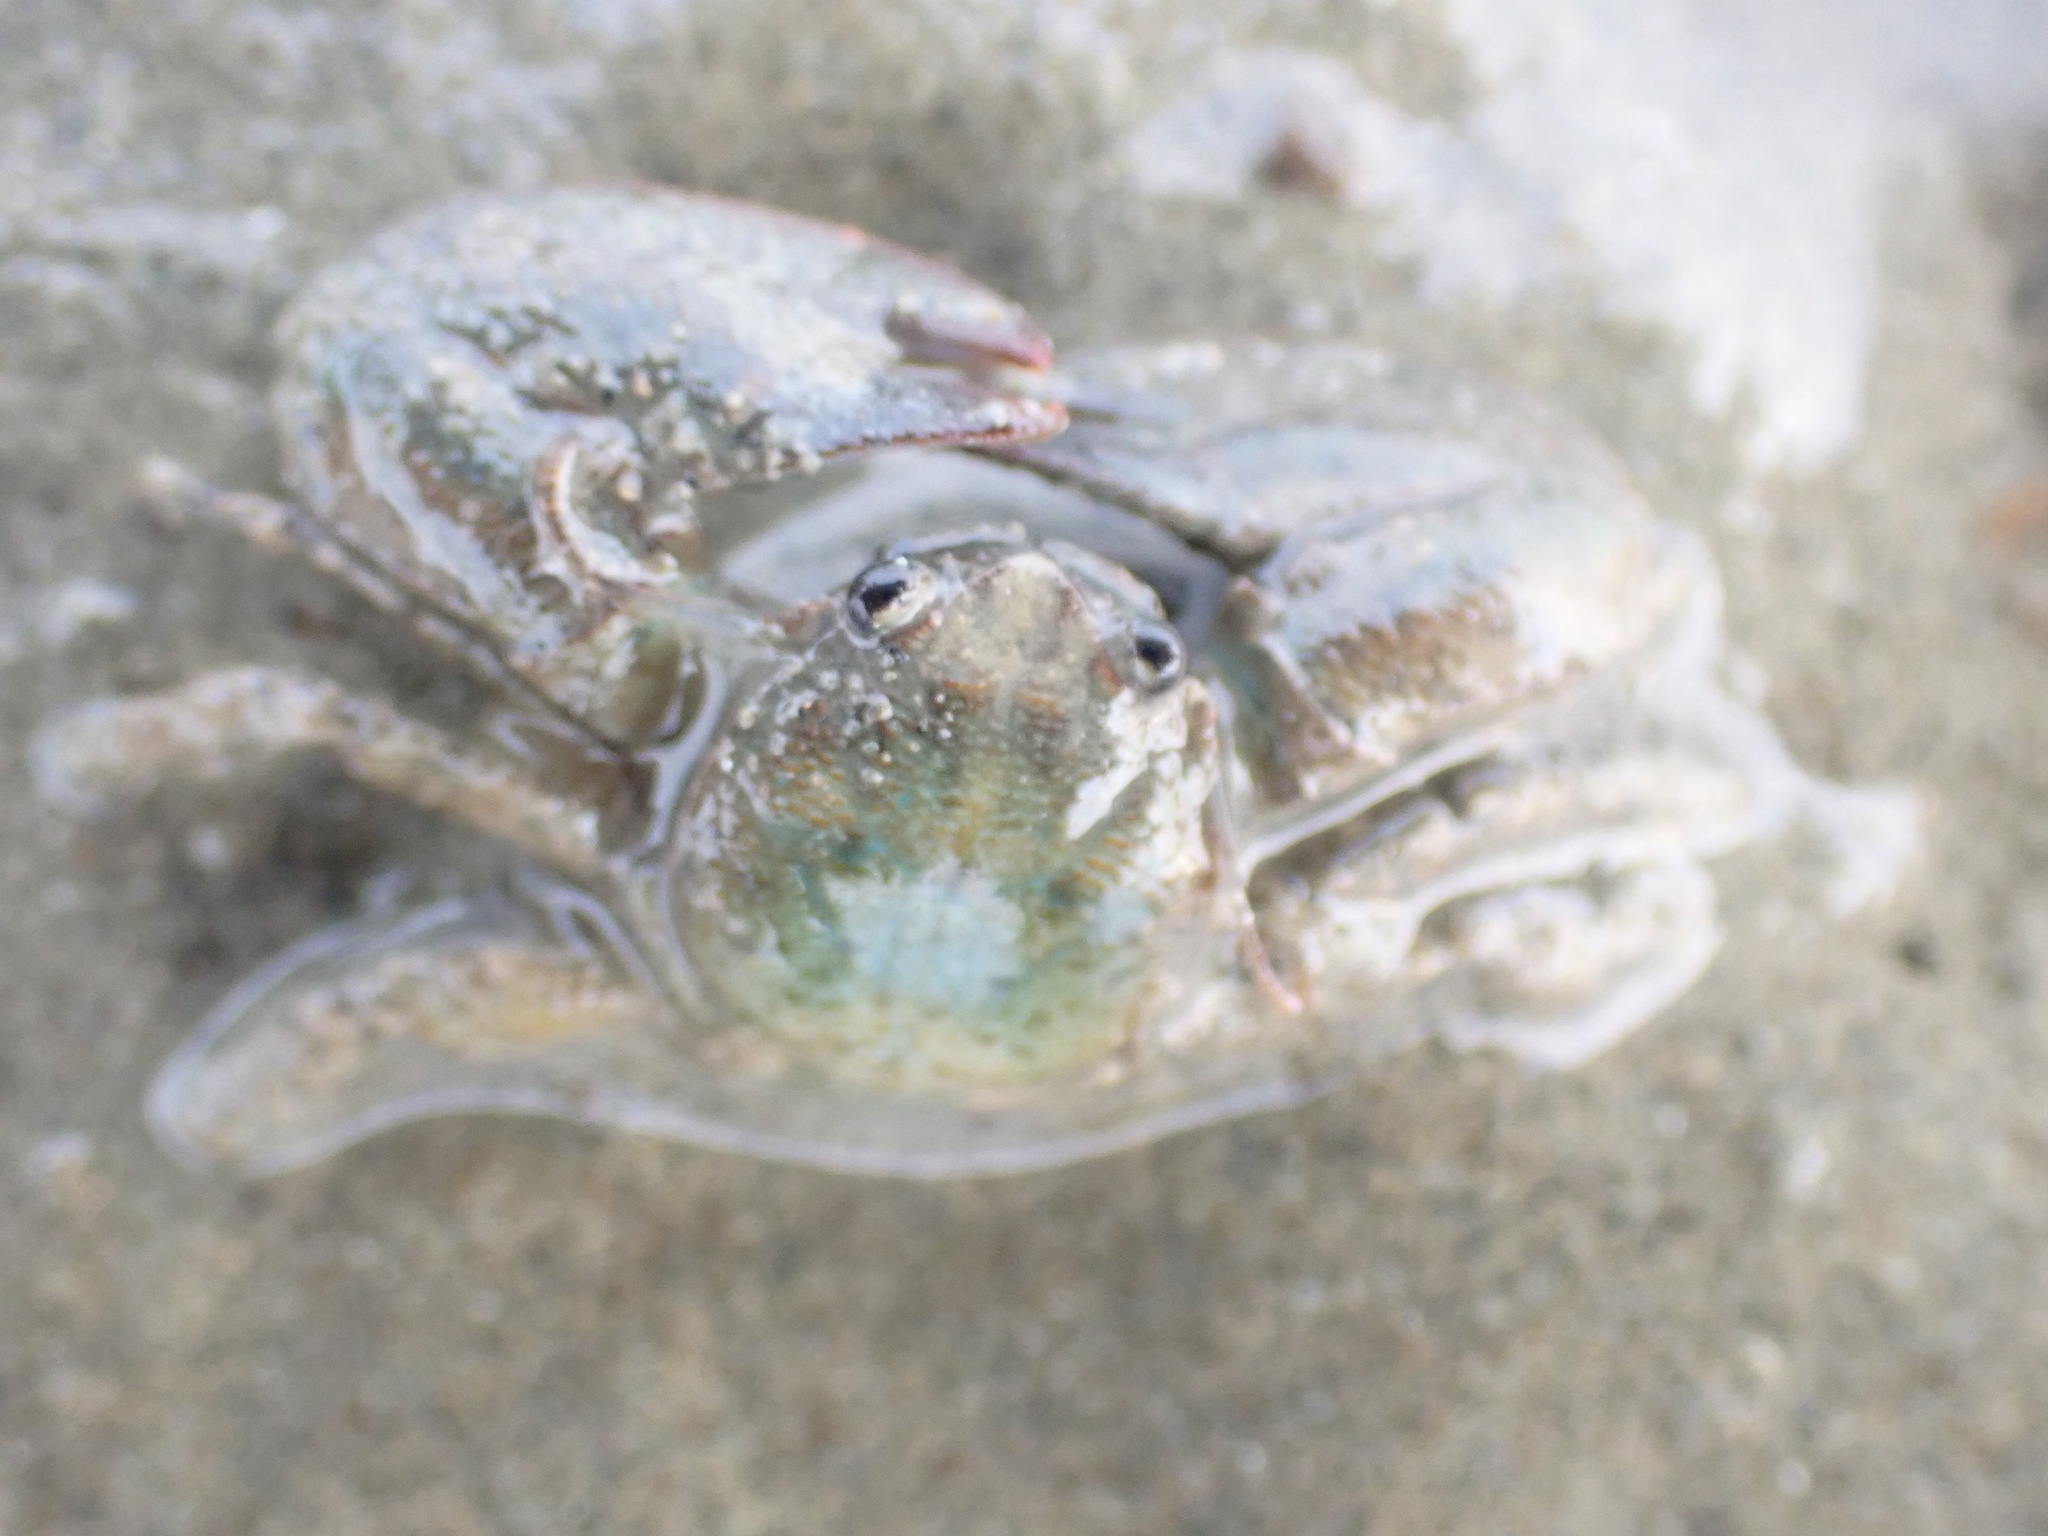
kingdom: Animalia
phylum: Arthropoda
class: Malacostraca
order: Decapoda
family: Porcellanidae
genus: Petrolisthes
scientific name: Petrolisthes elongatus
